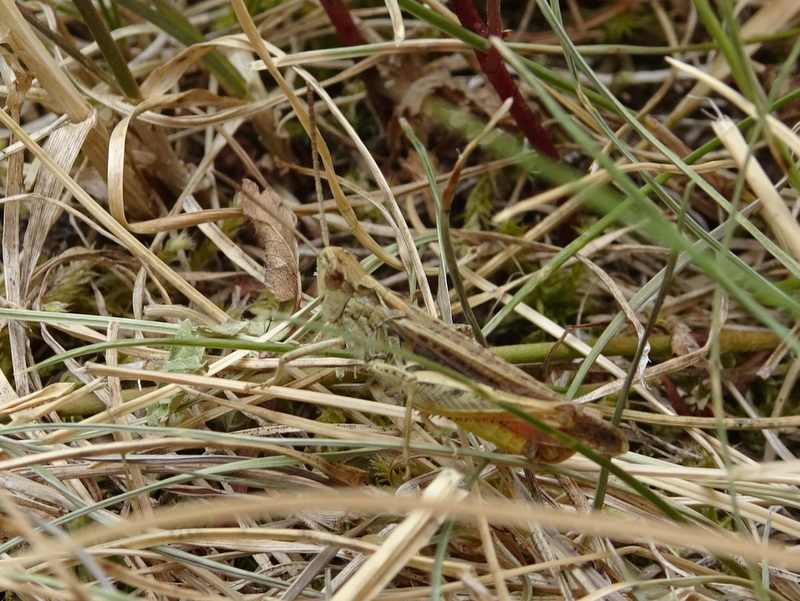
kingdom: Animalia
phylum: Arthropoda
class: Insecta
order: Orthoptera
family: Acrididae
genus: Chorthippus
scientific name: Chorthippus biguttulus
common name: Bow-winged grasshopper
